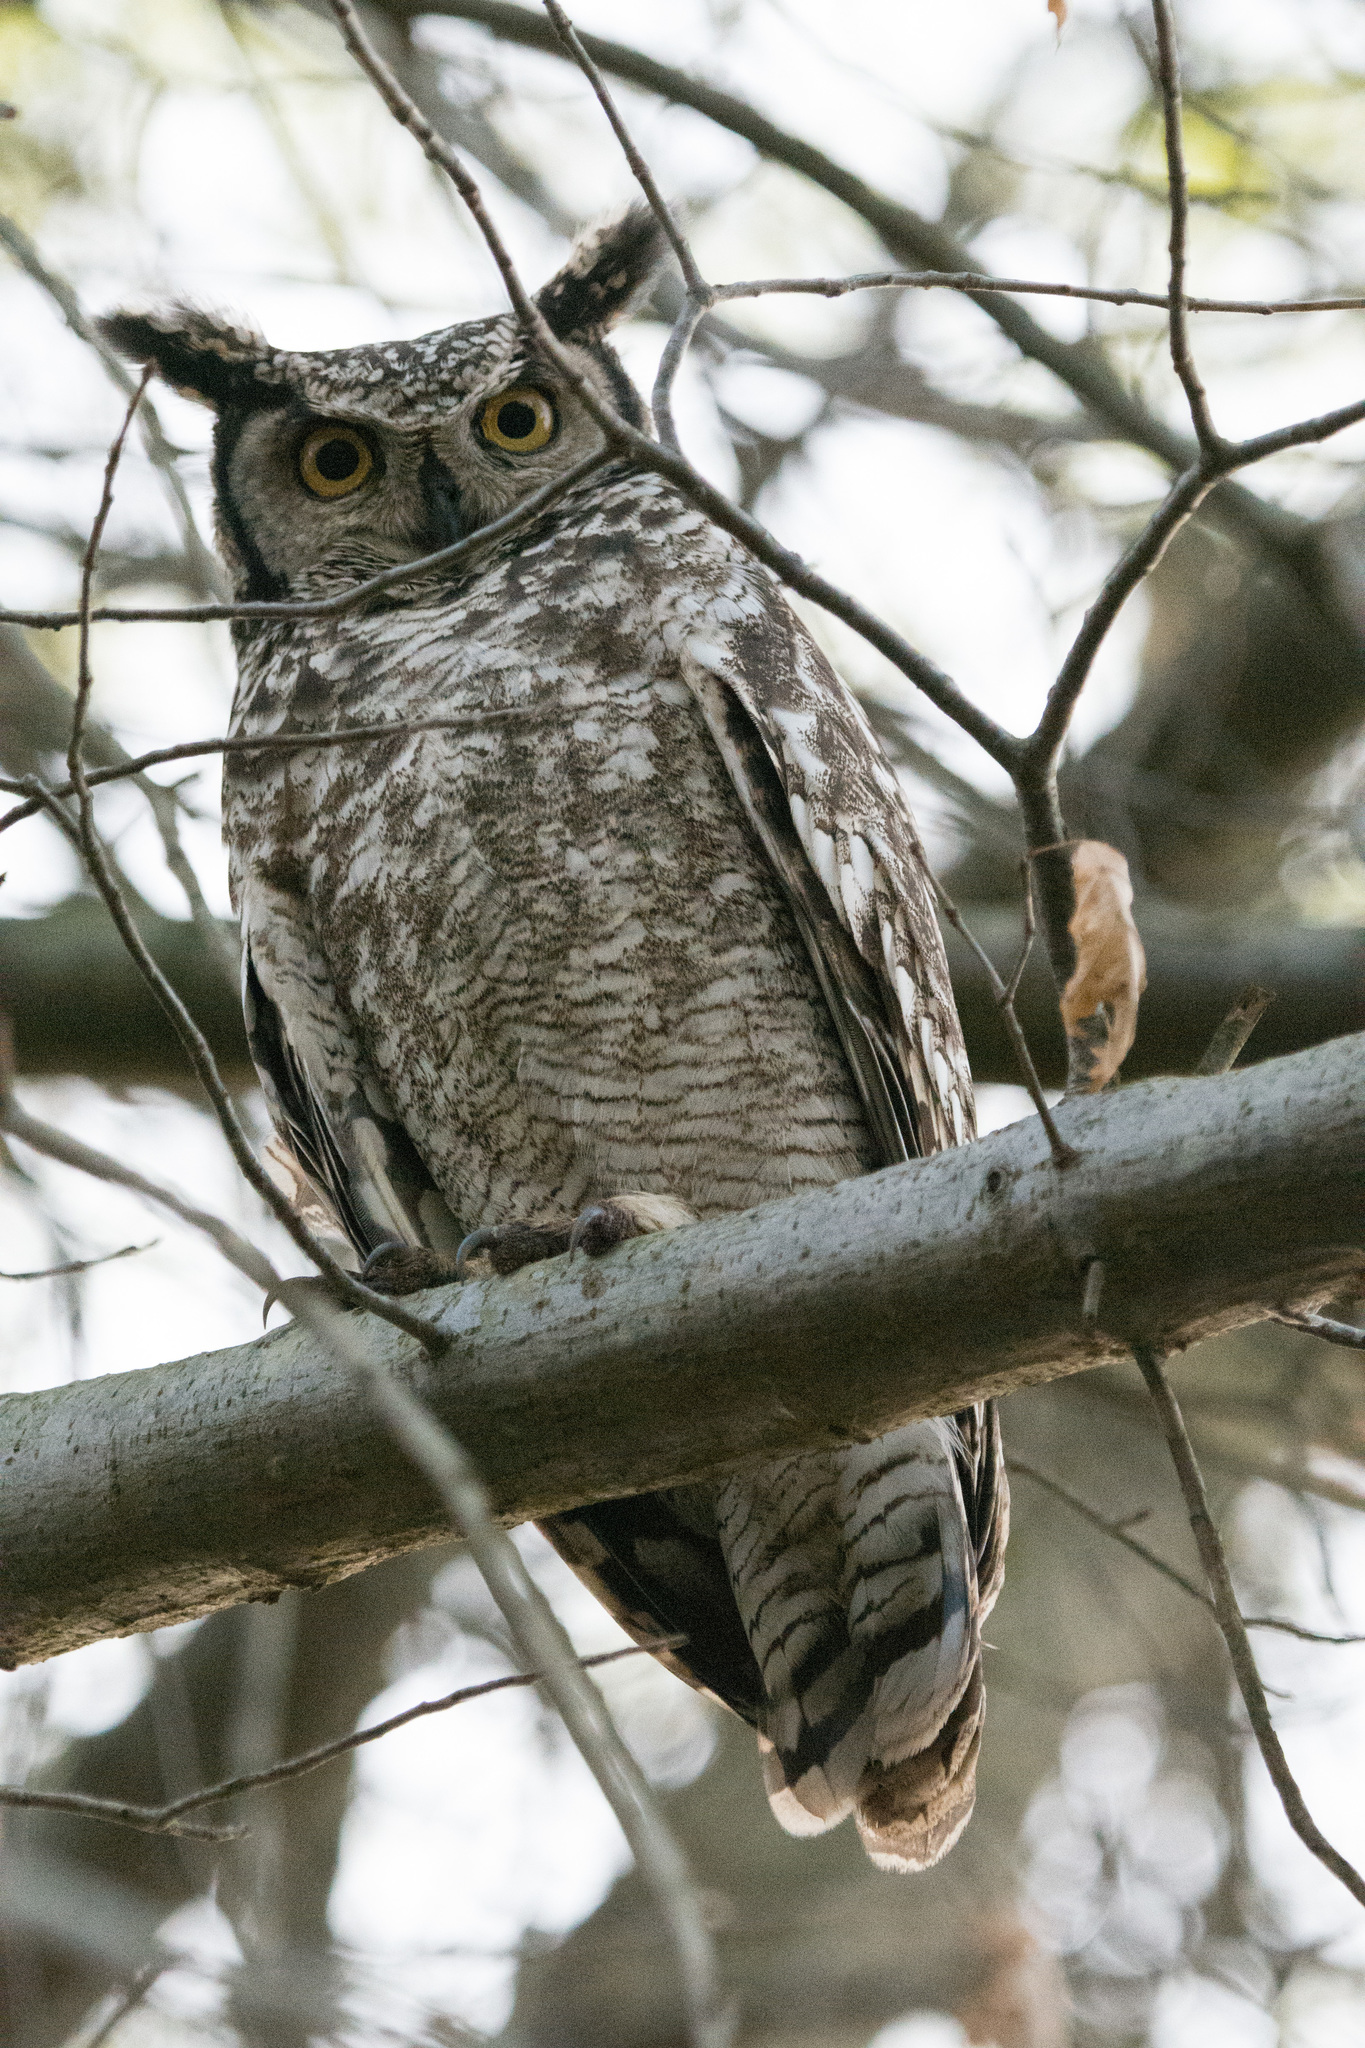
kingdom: Animalia
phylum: Chordata
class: Aves
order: Strigiformes
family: Strigidae
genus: Bubo
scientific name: Bubo africanus
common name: Spotted eagle-owl
